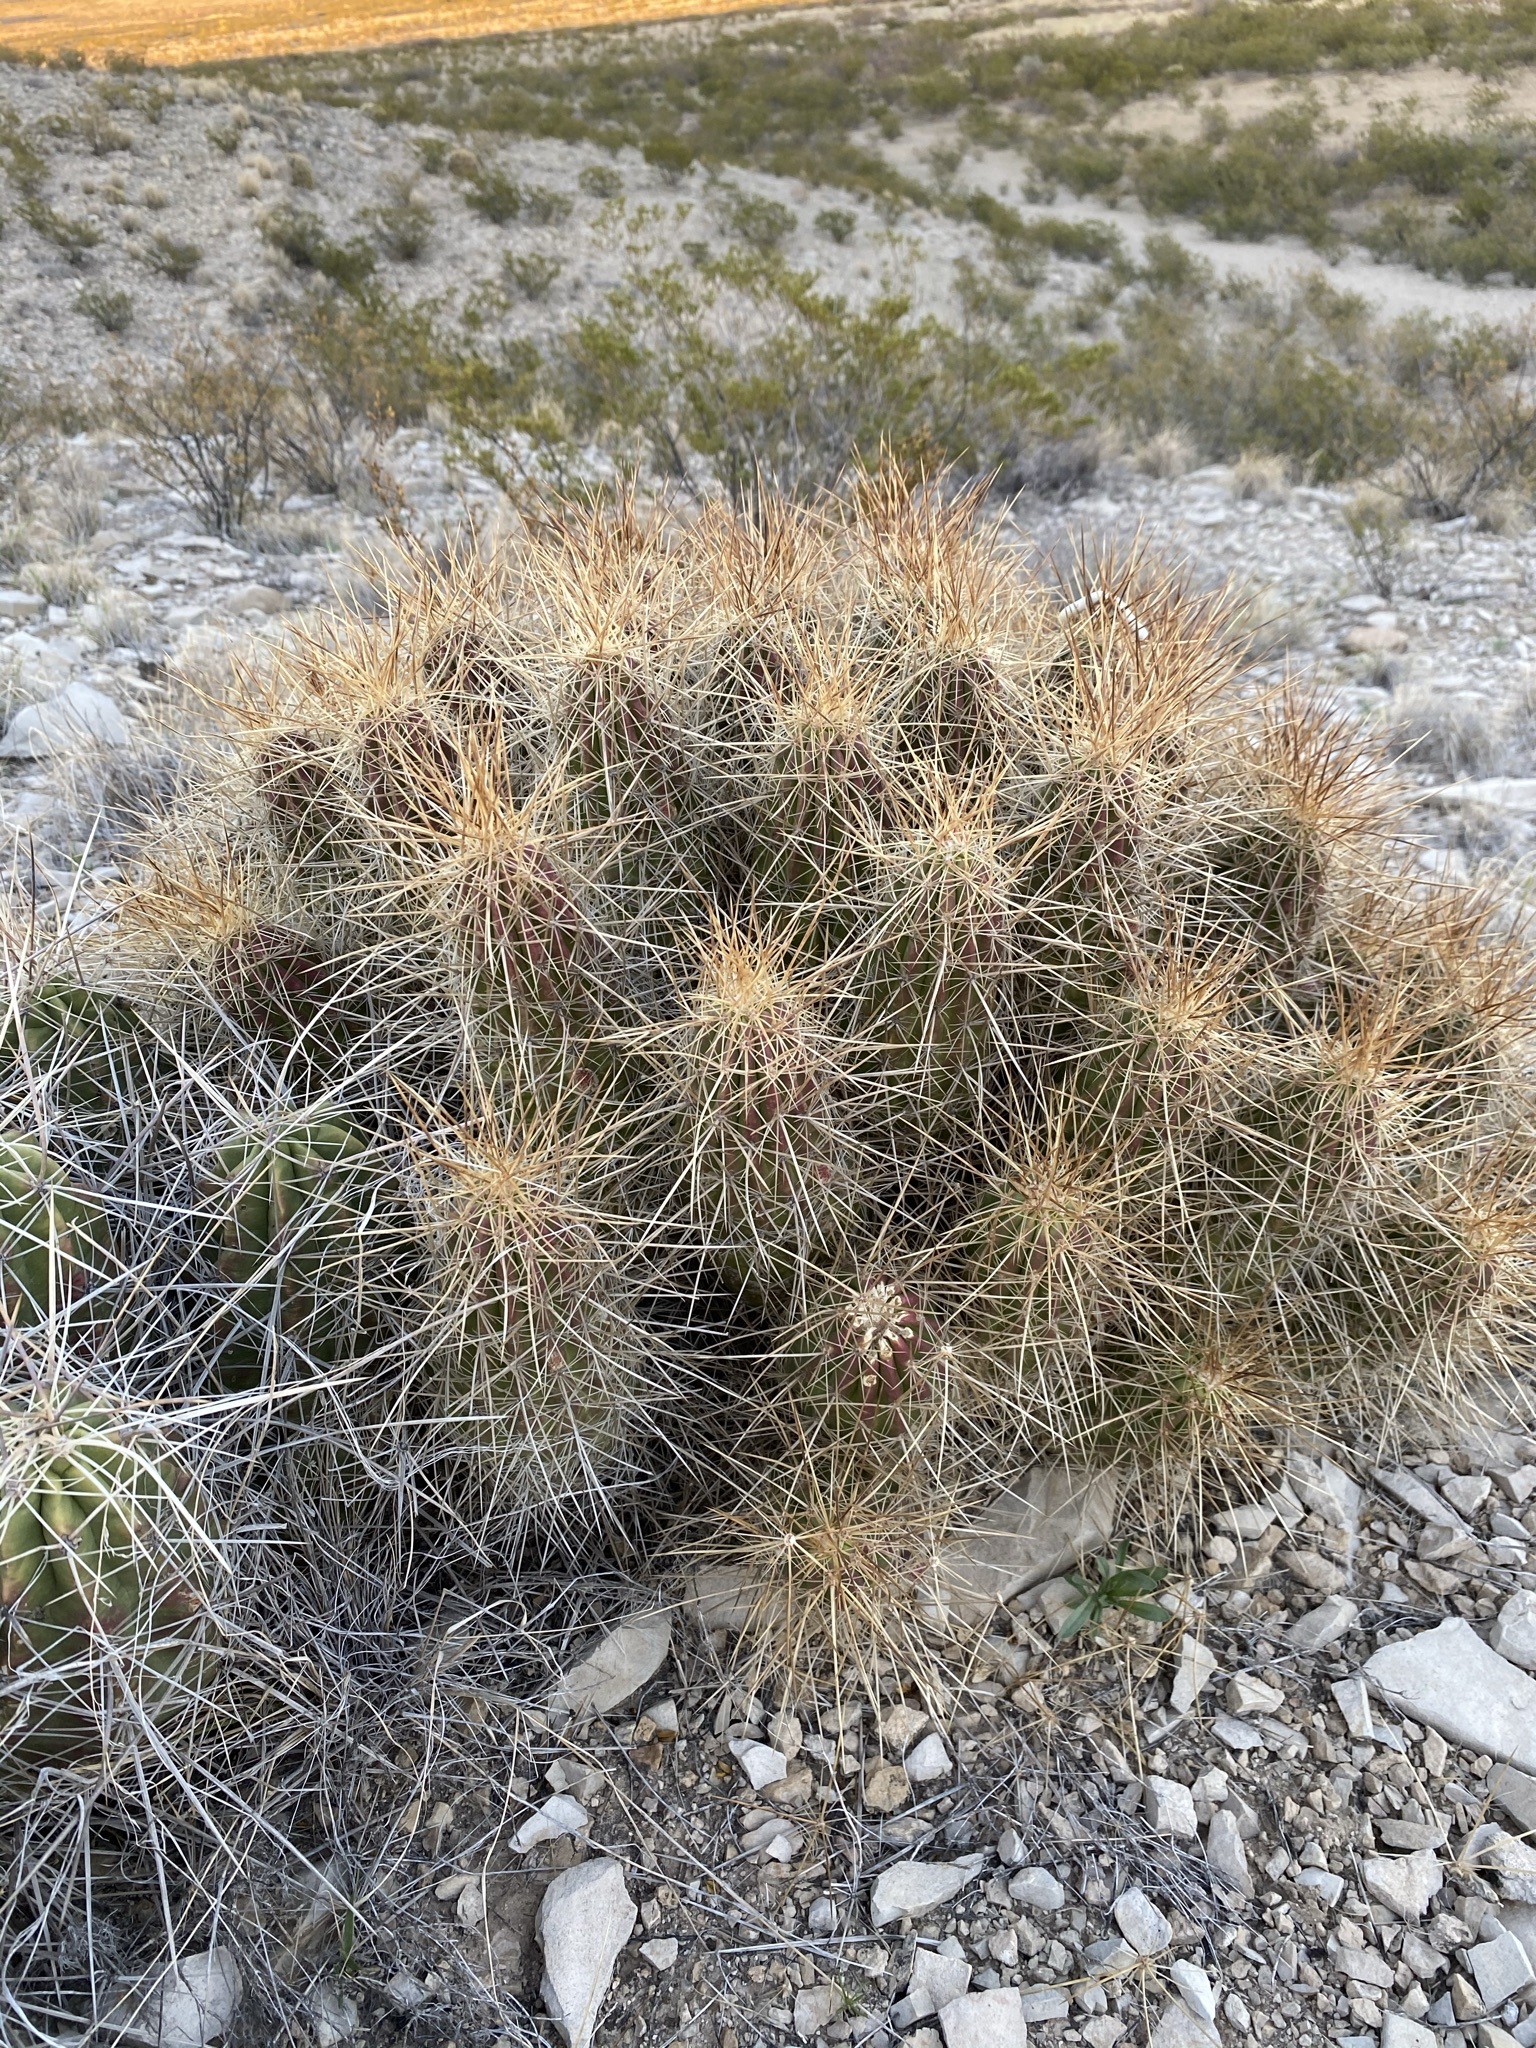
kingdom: Plantae
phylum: Tracheophyta
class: Magnoliopsida
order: Caryophyllales
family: Cactaceae
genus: Echinocereus
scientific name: Echinocereus stramineus
